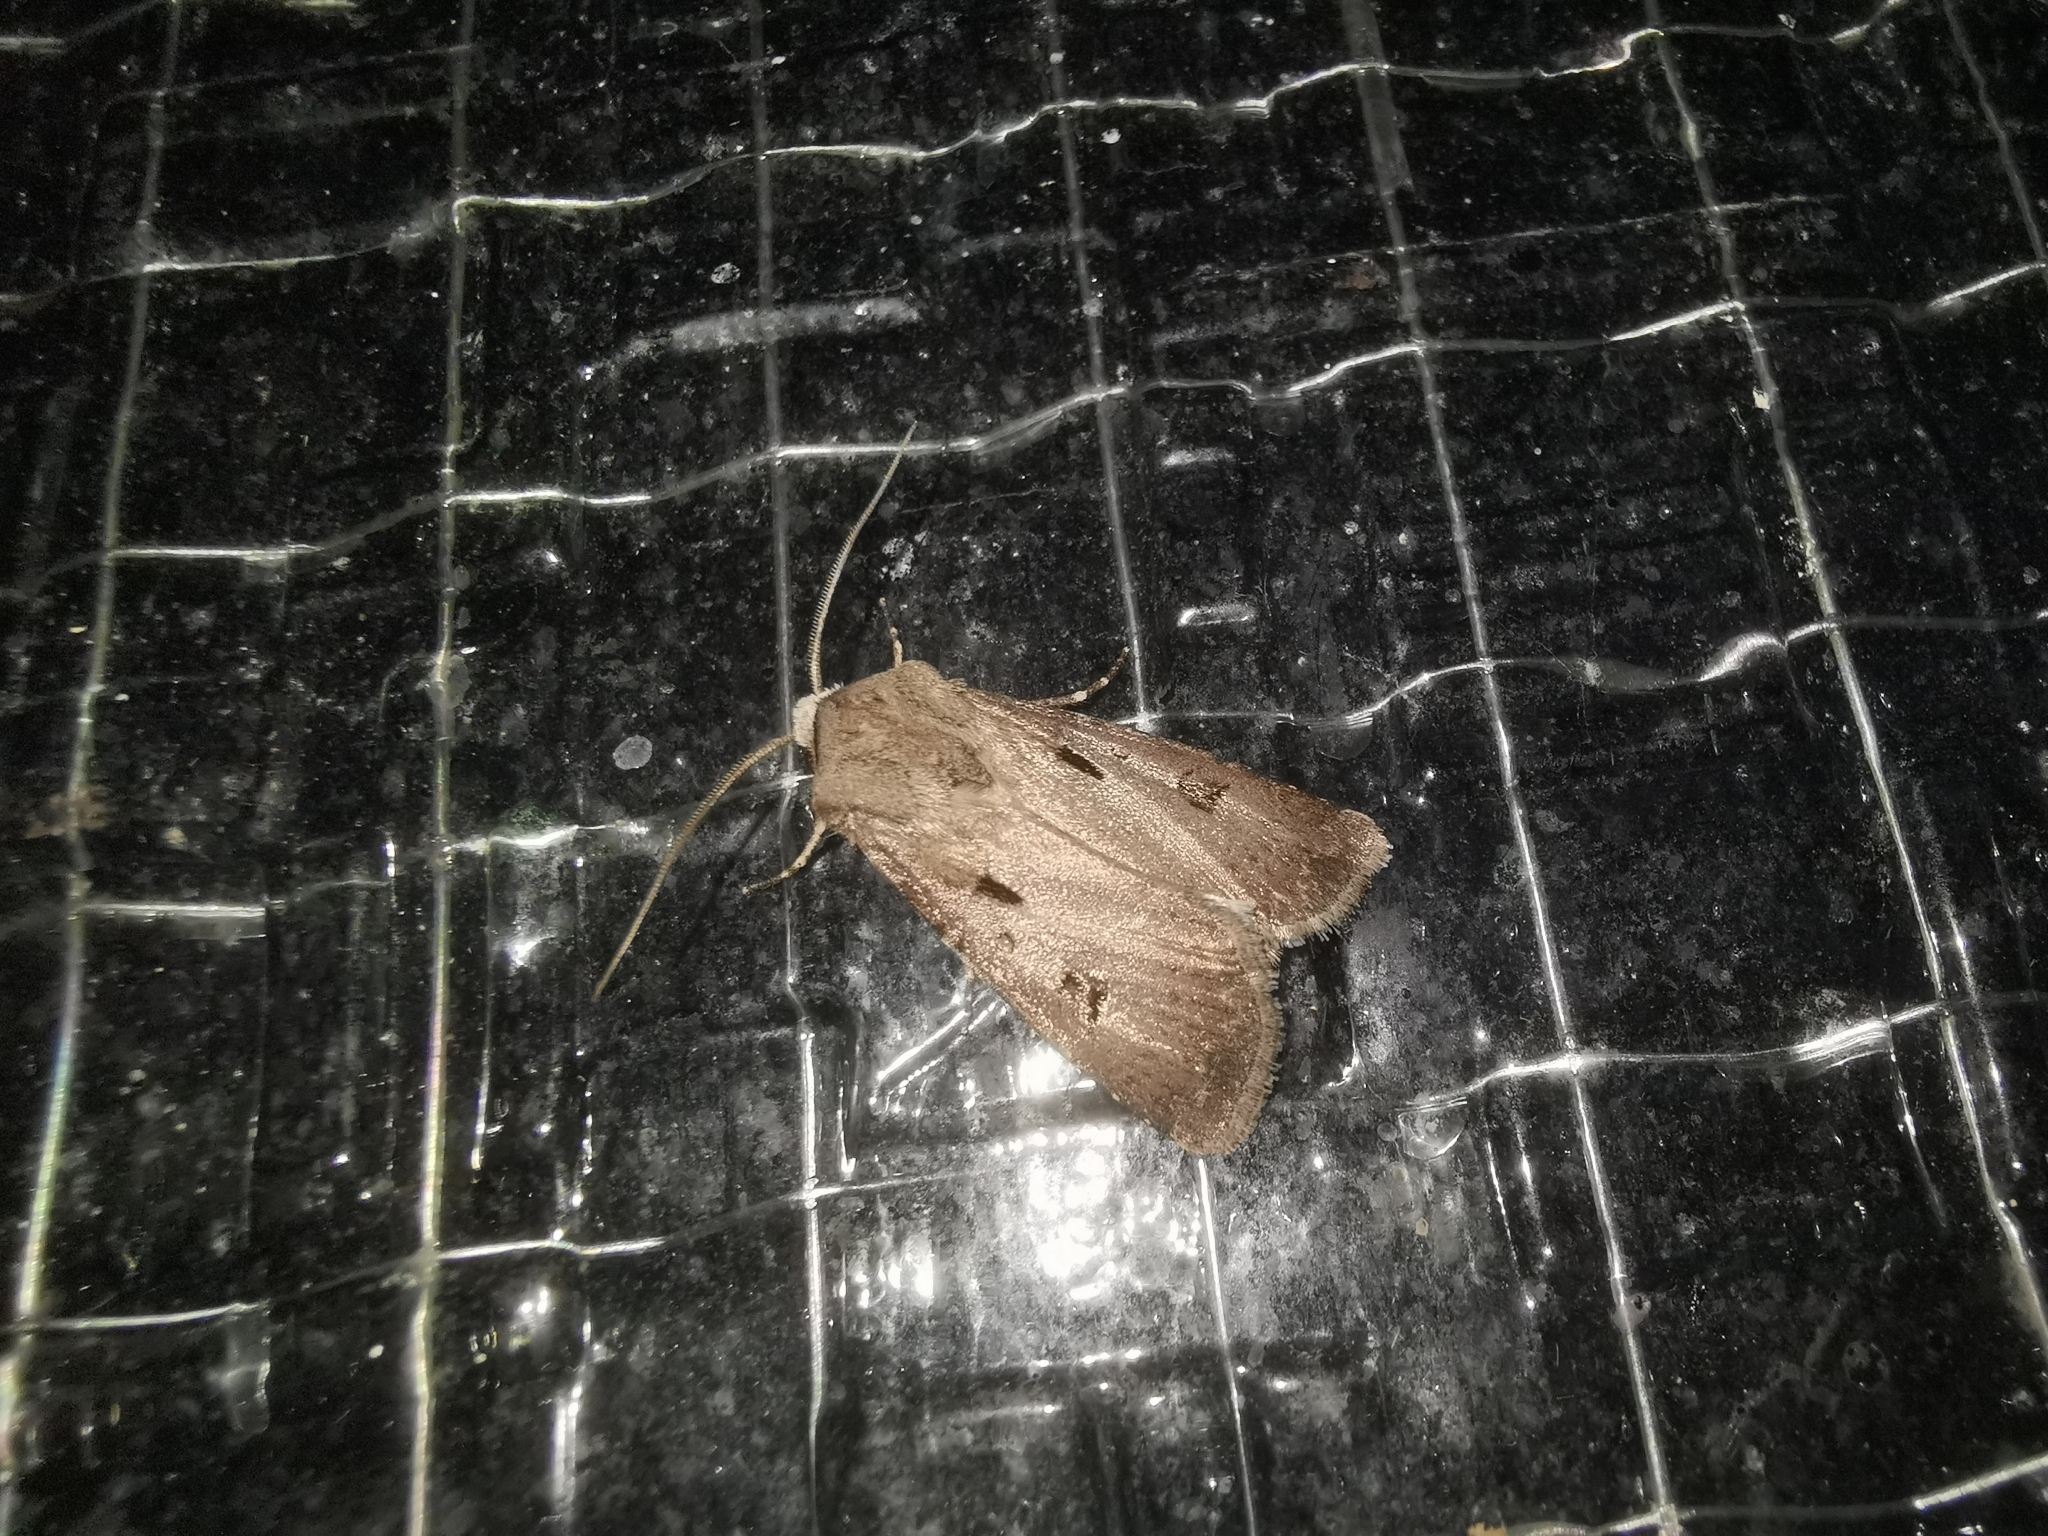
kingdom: Animalia
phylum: Arthropoda
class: Insecta
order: Lepidoptera
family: Noctuidae
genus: Agrotis
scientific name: Agrotis exclamationis
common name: Heart and dart
